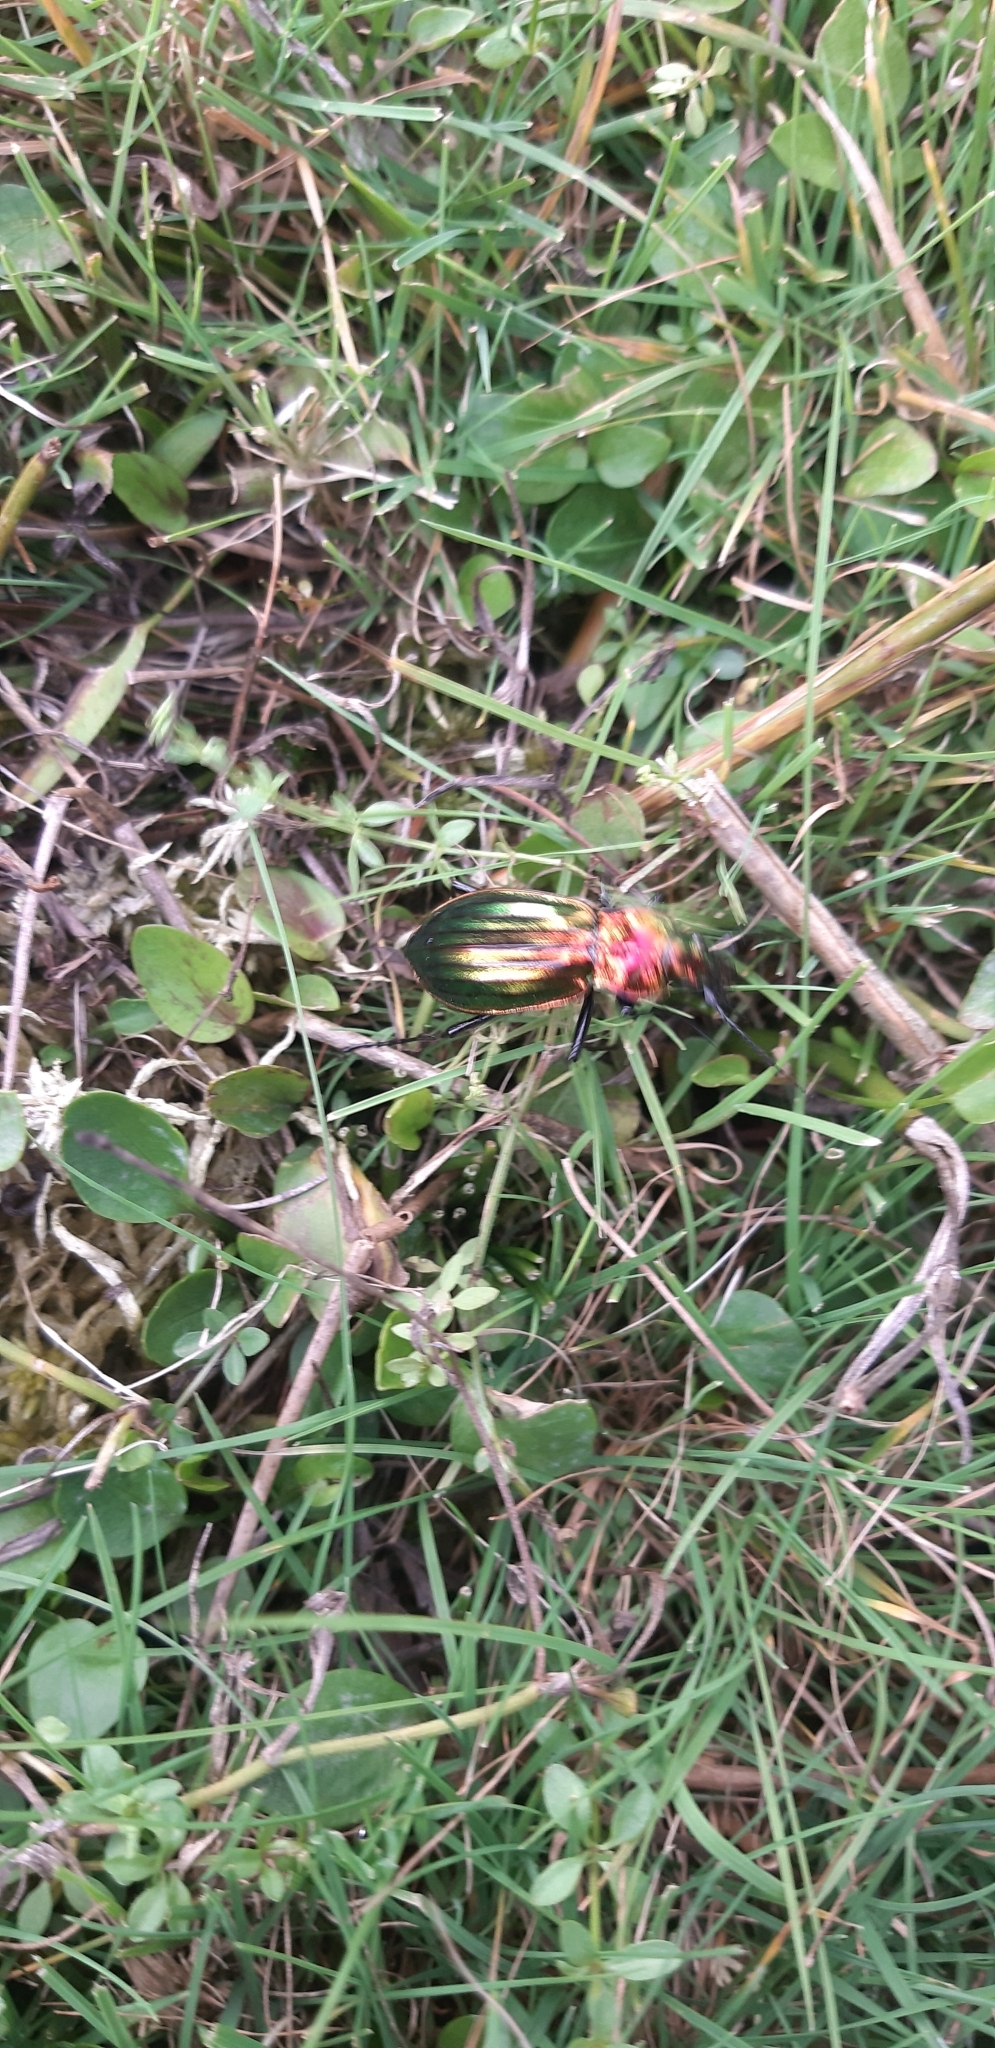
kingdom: Animalia
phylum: Arthropoda
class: Insecta
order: Coleoptera
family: Carabidae
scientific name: Carabidae
